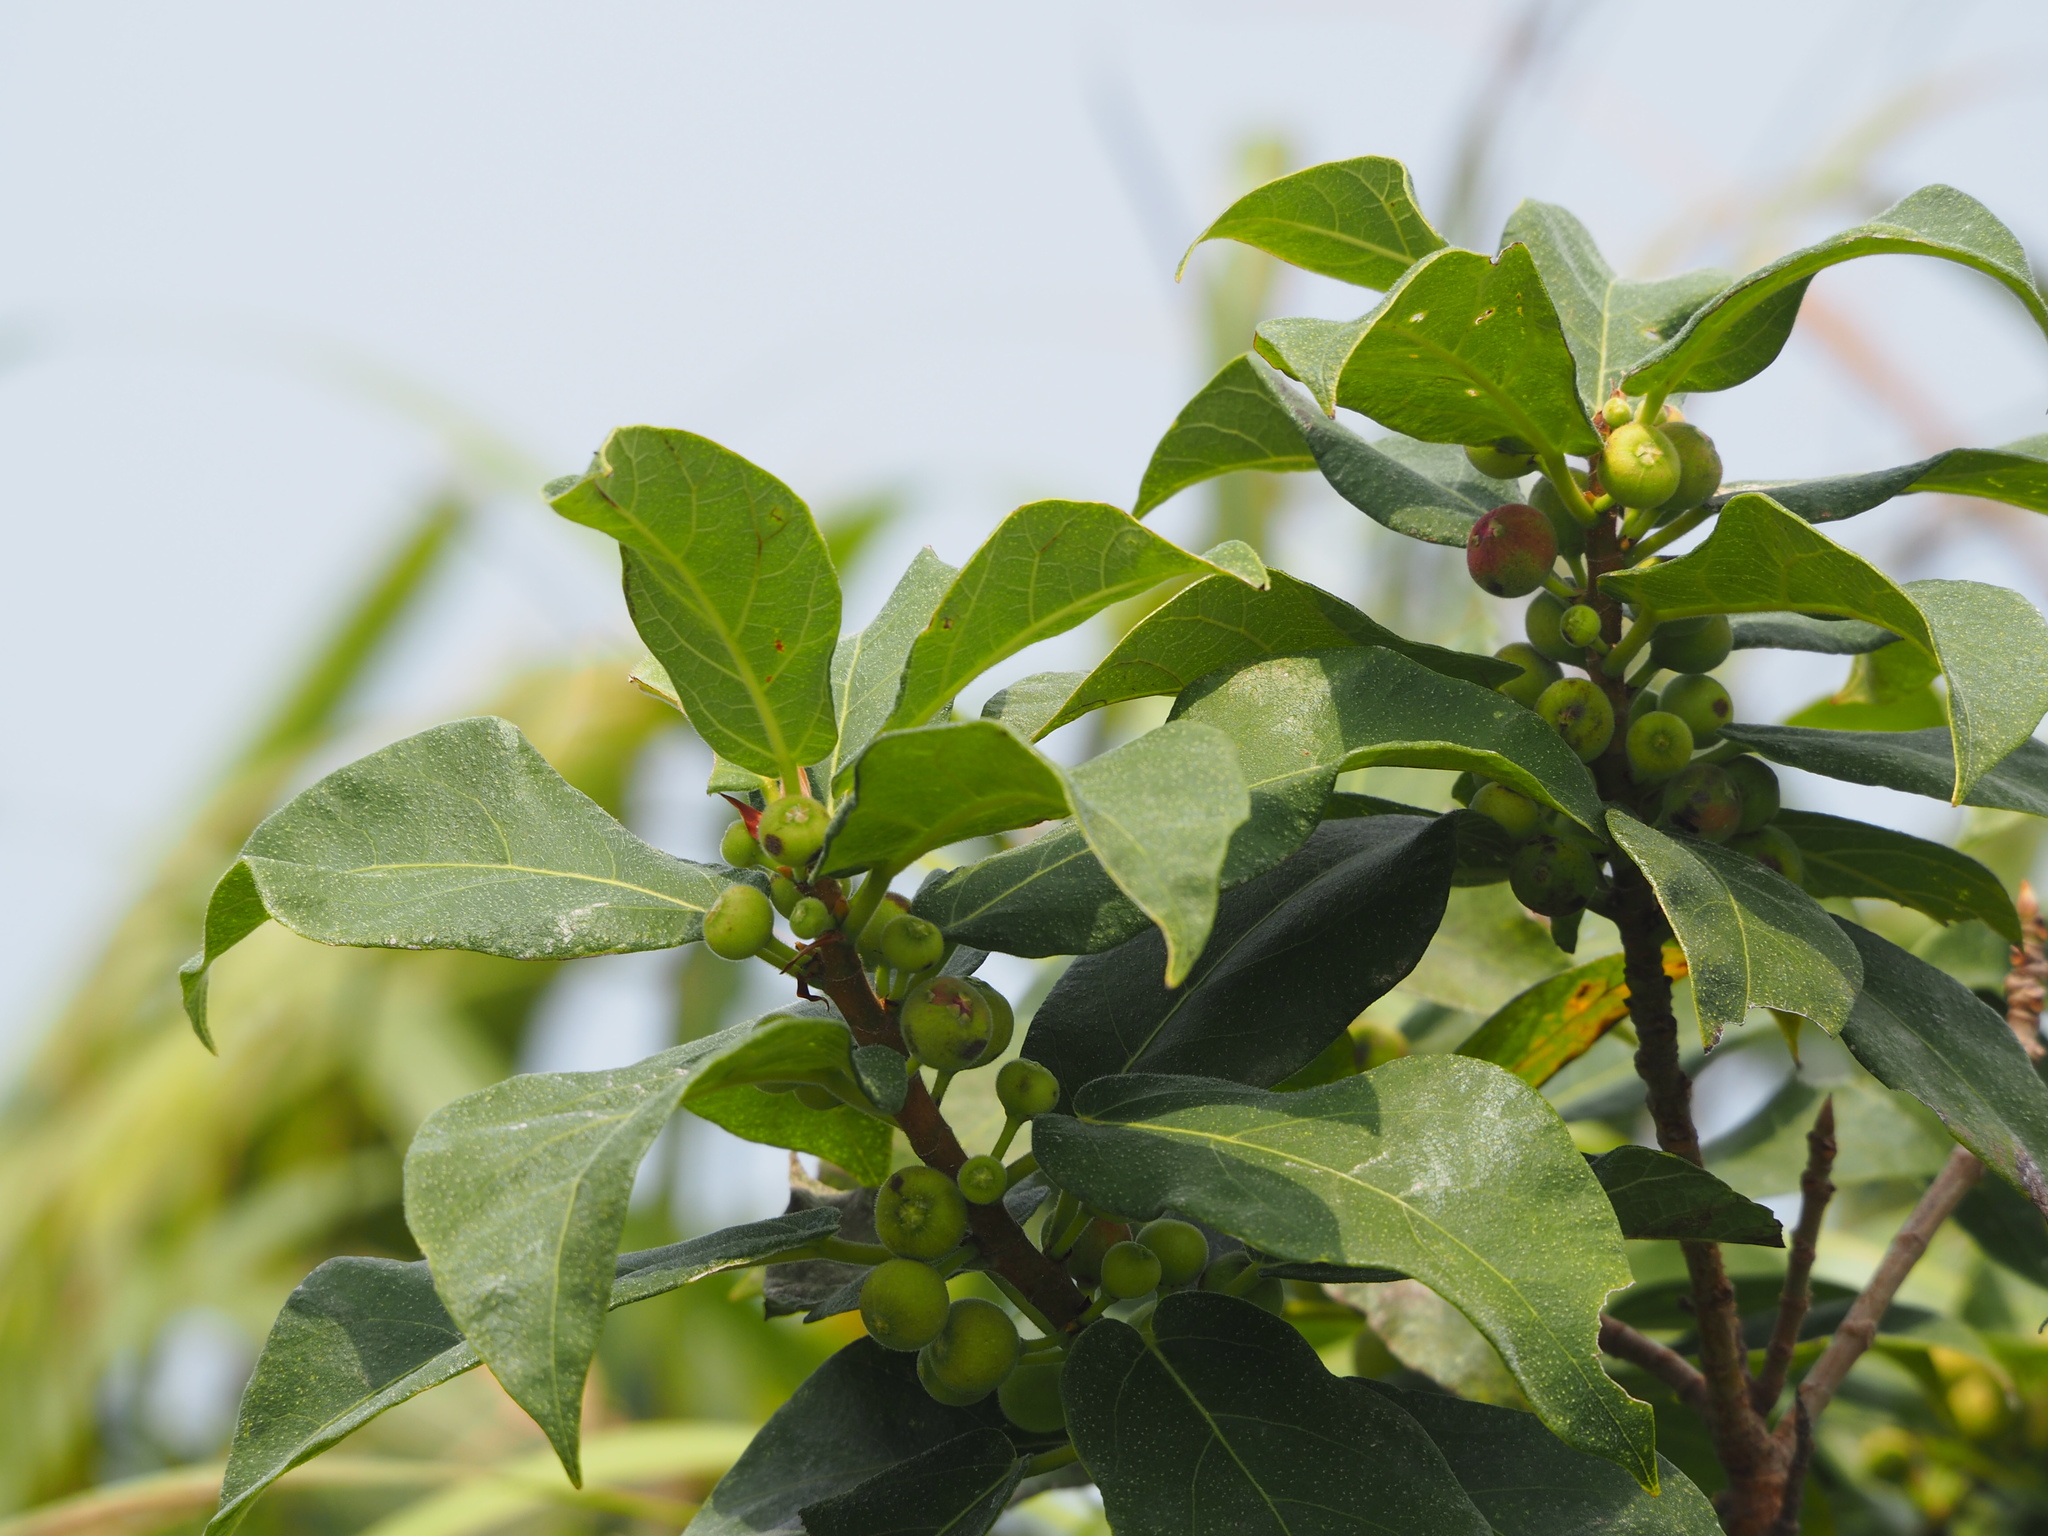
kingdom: Plantae
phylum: Tracheophyta
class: Magnoliopsida
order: Rosales
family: Moraceae
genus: Ficus
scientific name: Ficus erecta
